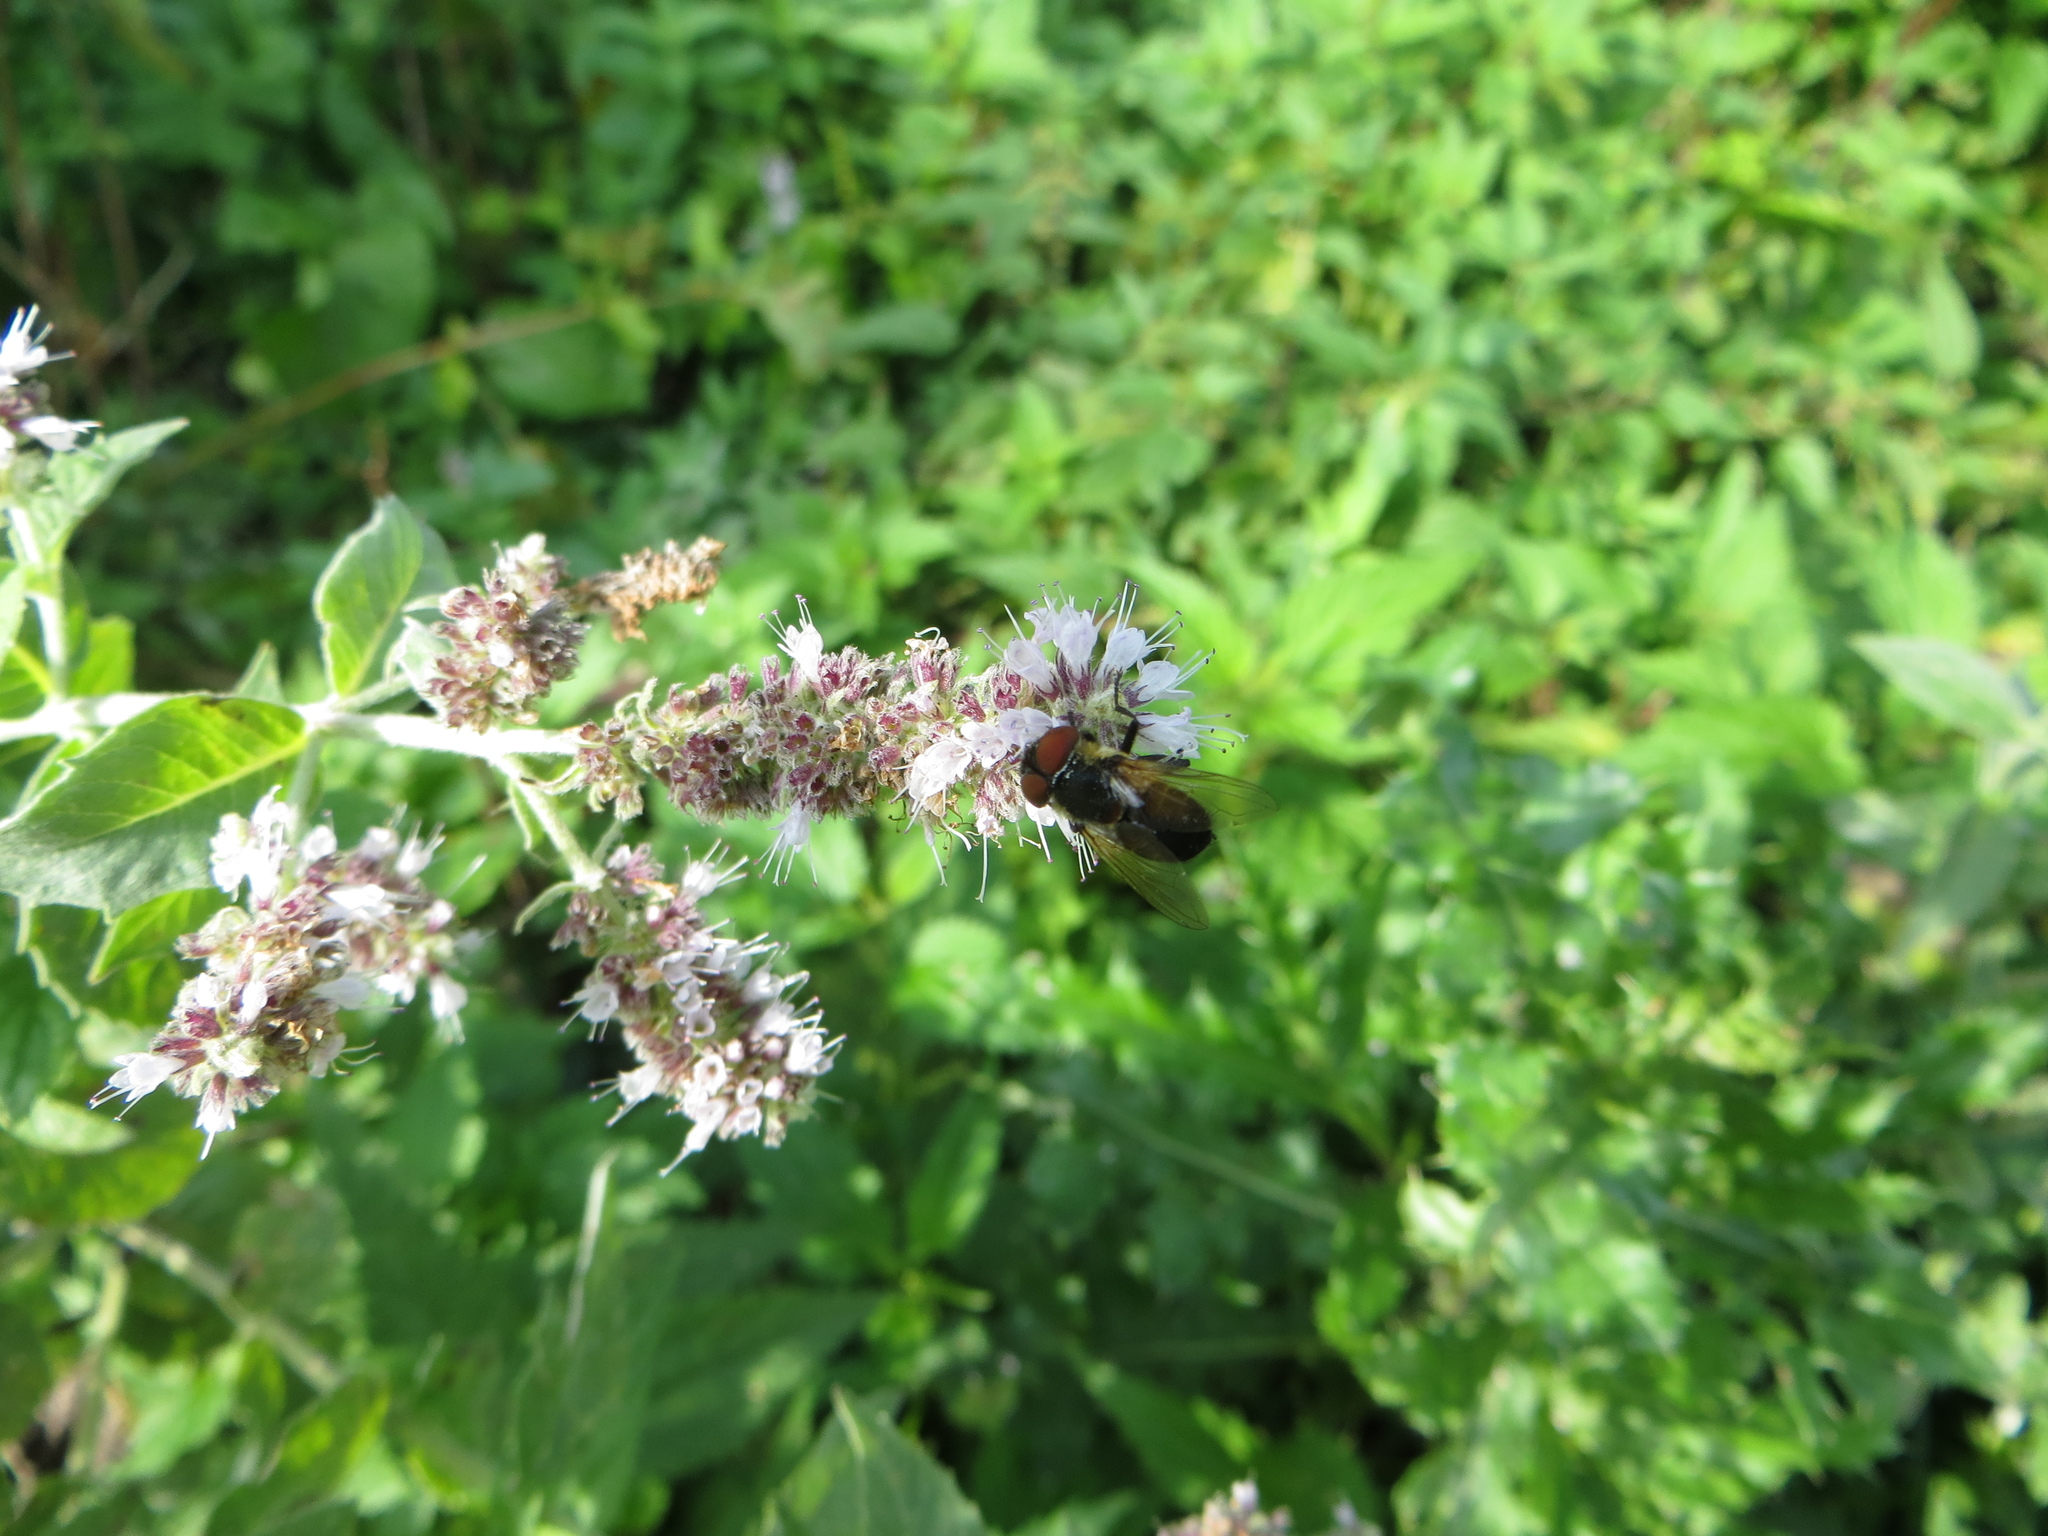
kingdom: Animalia
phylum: Arthropoda
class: Insecta
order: Diptera
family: Tachinidae
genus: Phasia
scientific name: Phasia hemiptera
